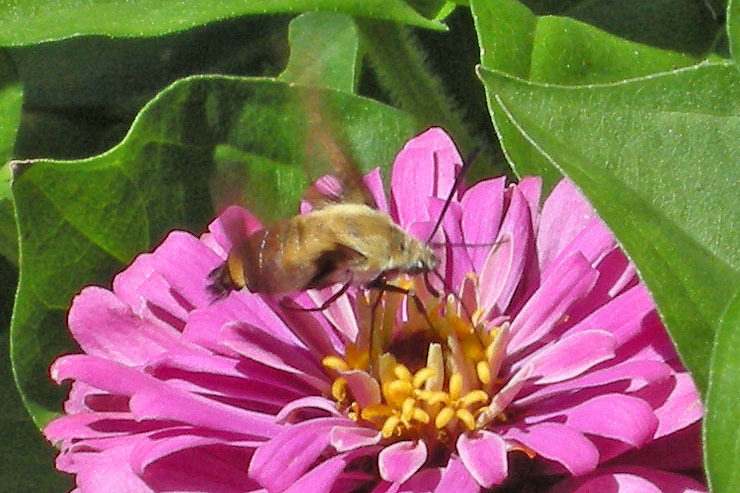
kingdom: Animalia
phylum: Arthropoda
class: Insecta
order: Lepidoptera
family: Sphingidae
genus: Hemaris
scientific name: Hemaris diffinis
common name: Bumblebee moth
